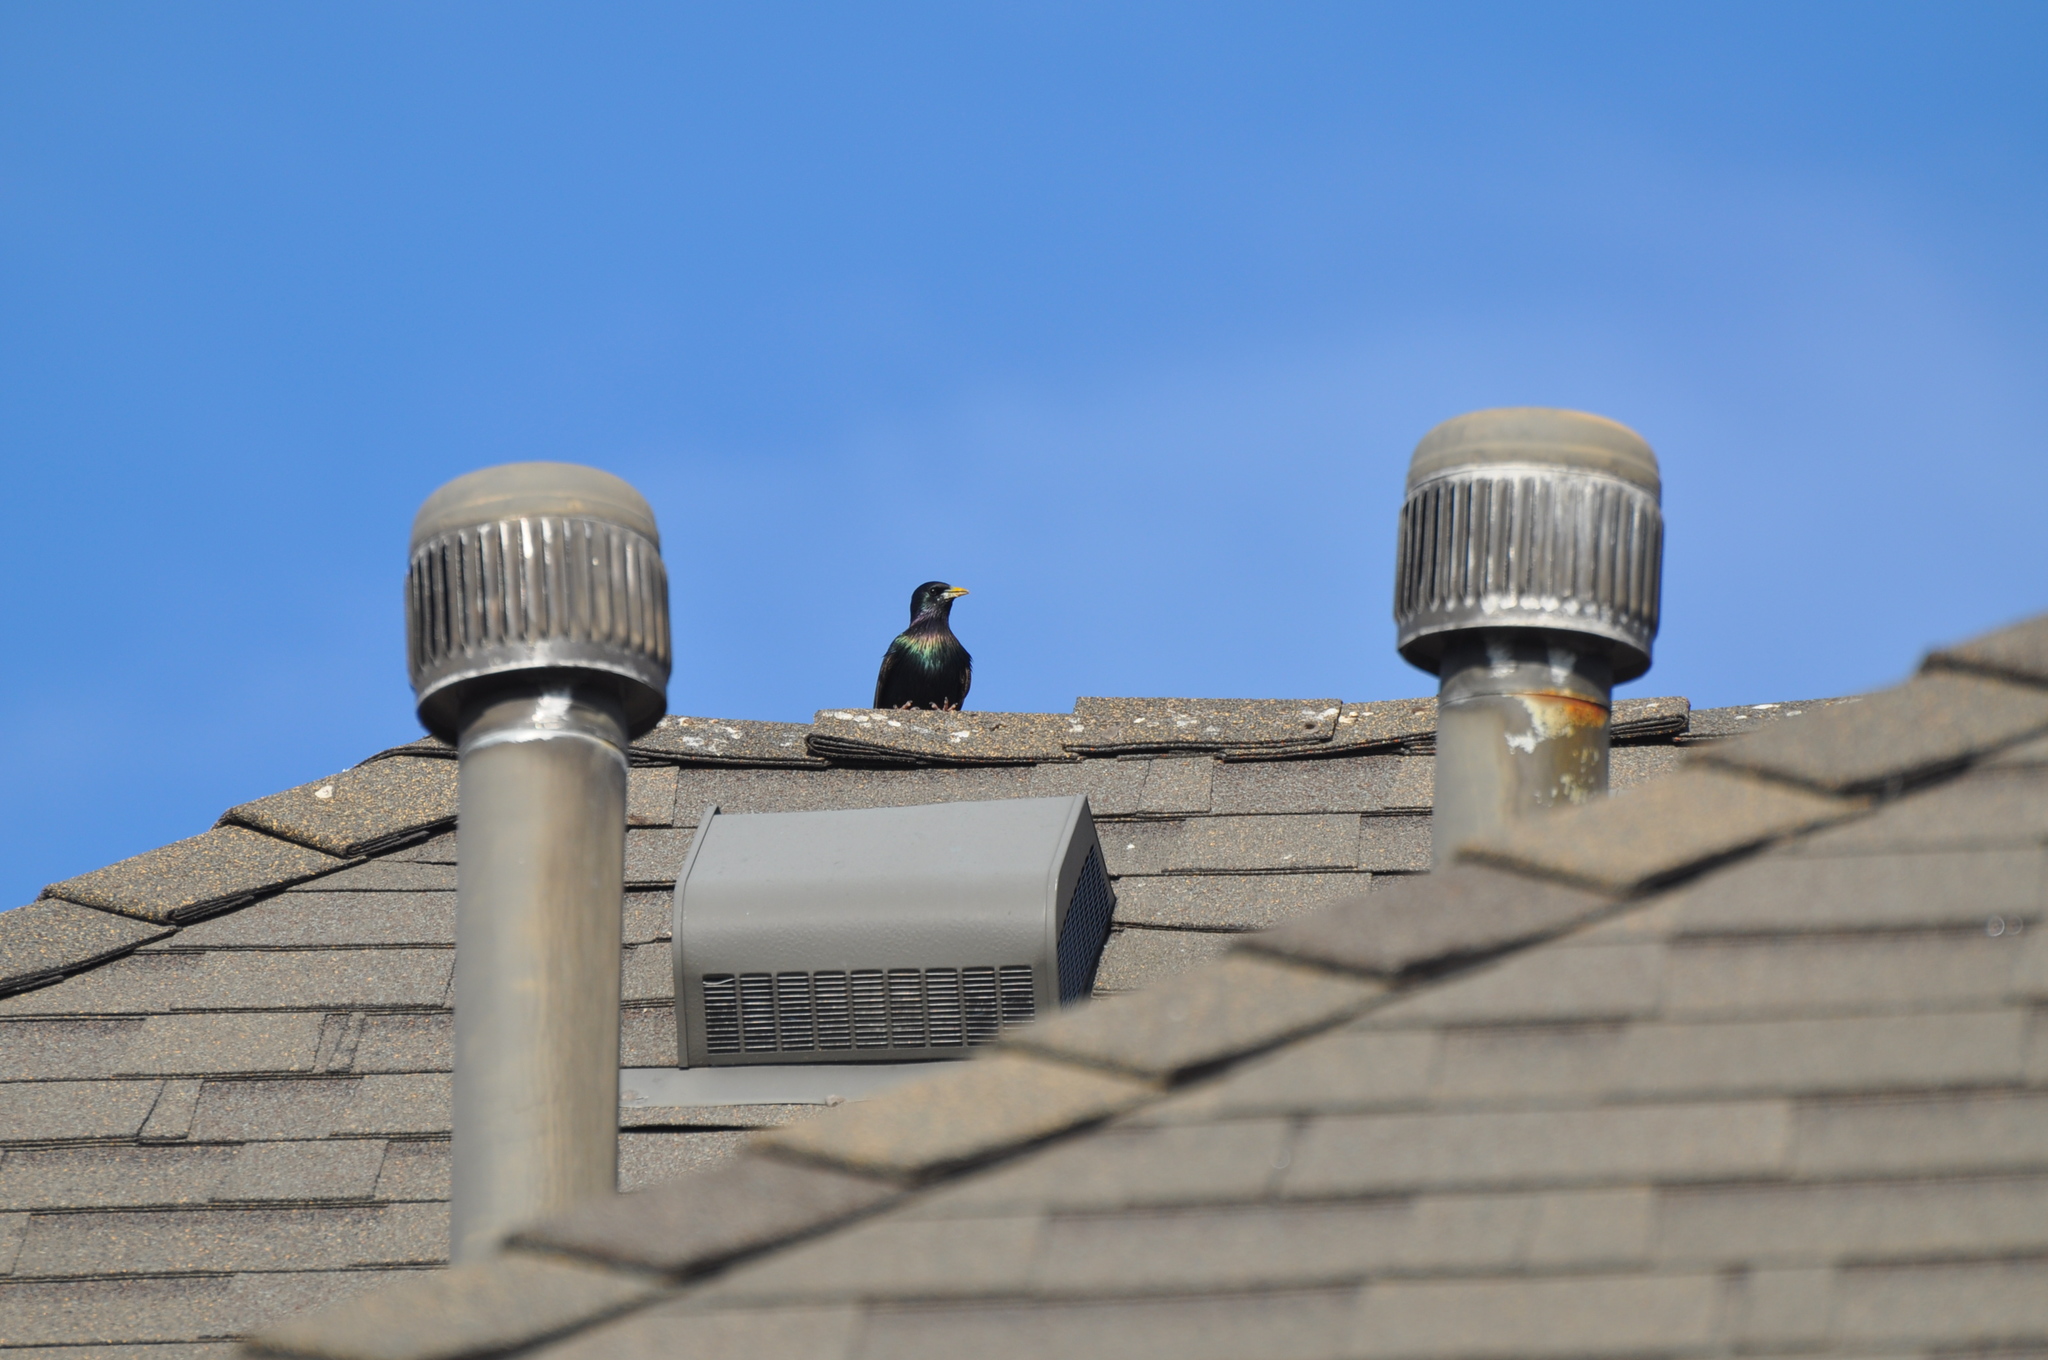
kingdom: Animalia
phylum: Chordata
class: Aves
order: Passeriformes
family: Sturnidae
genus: Sturnus
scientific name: Sturnus vulgaris
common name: Common starling
